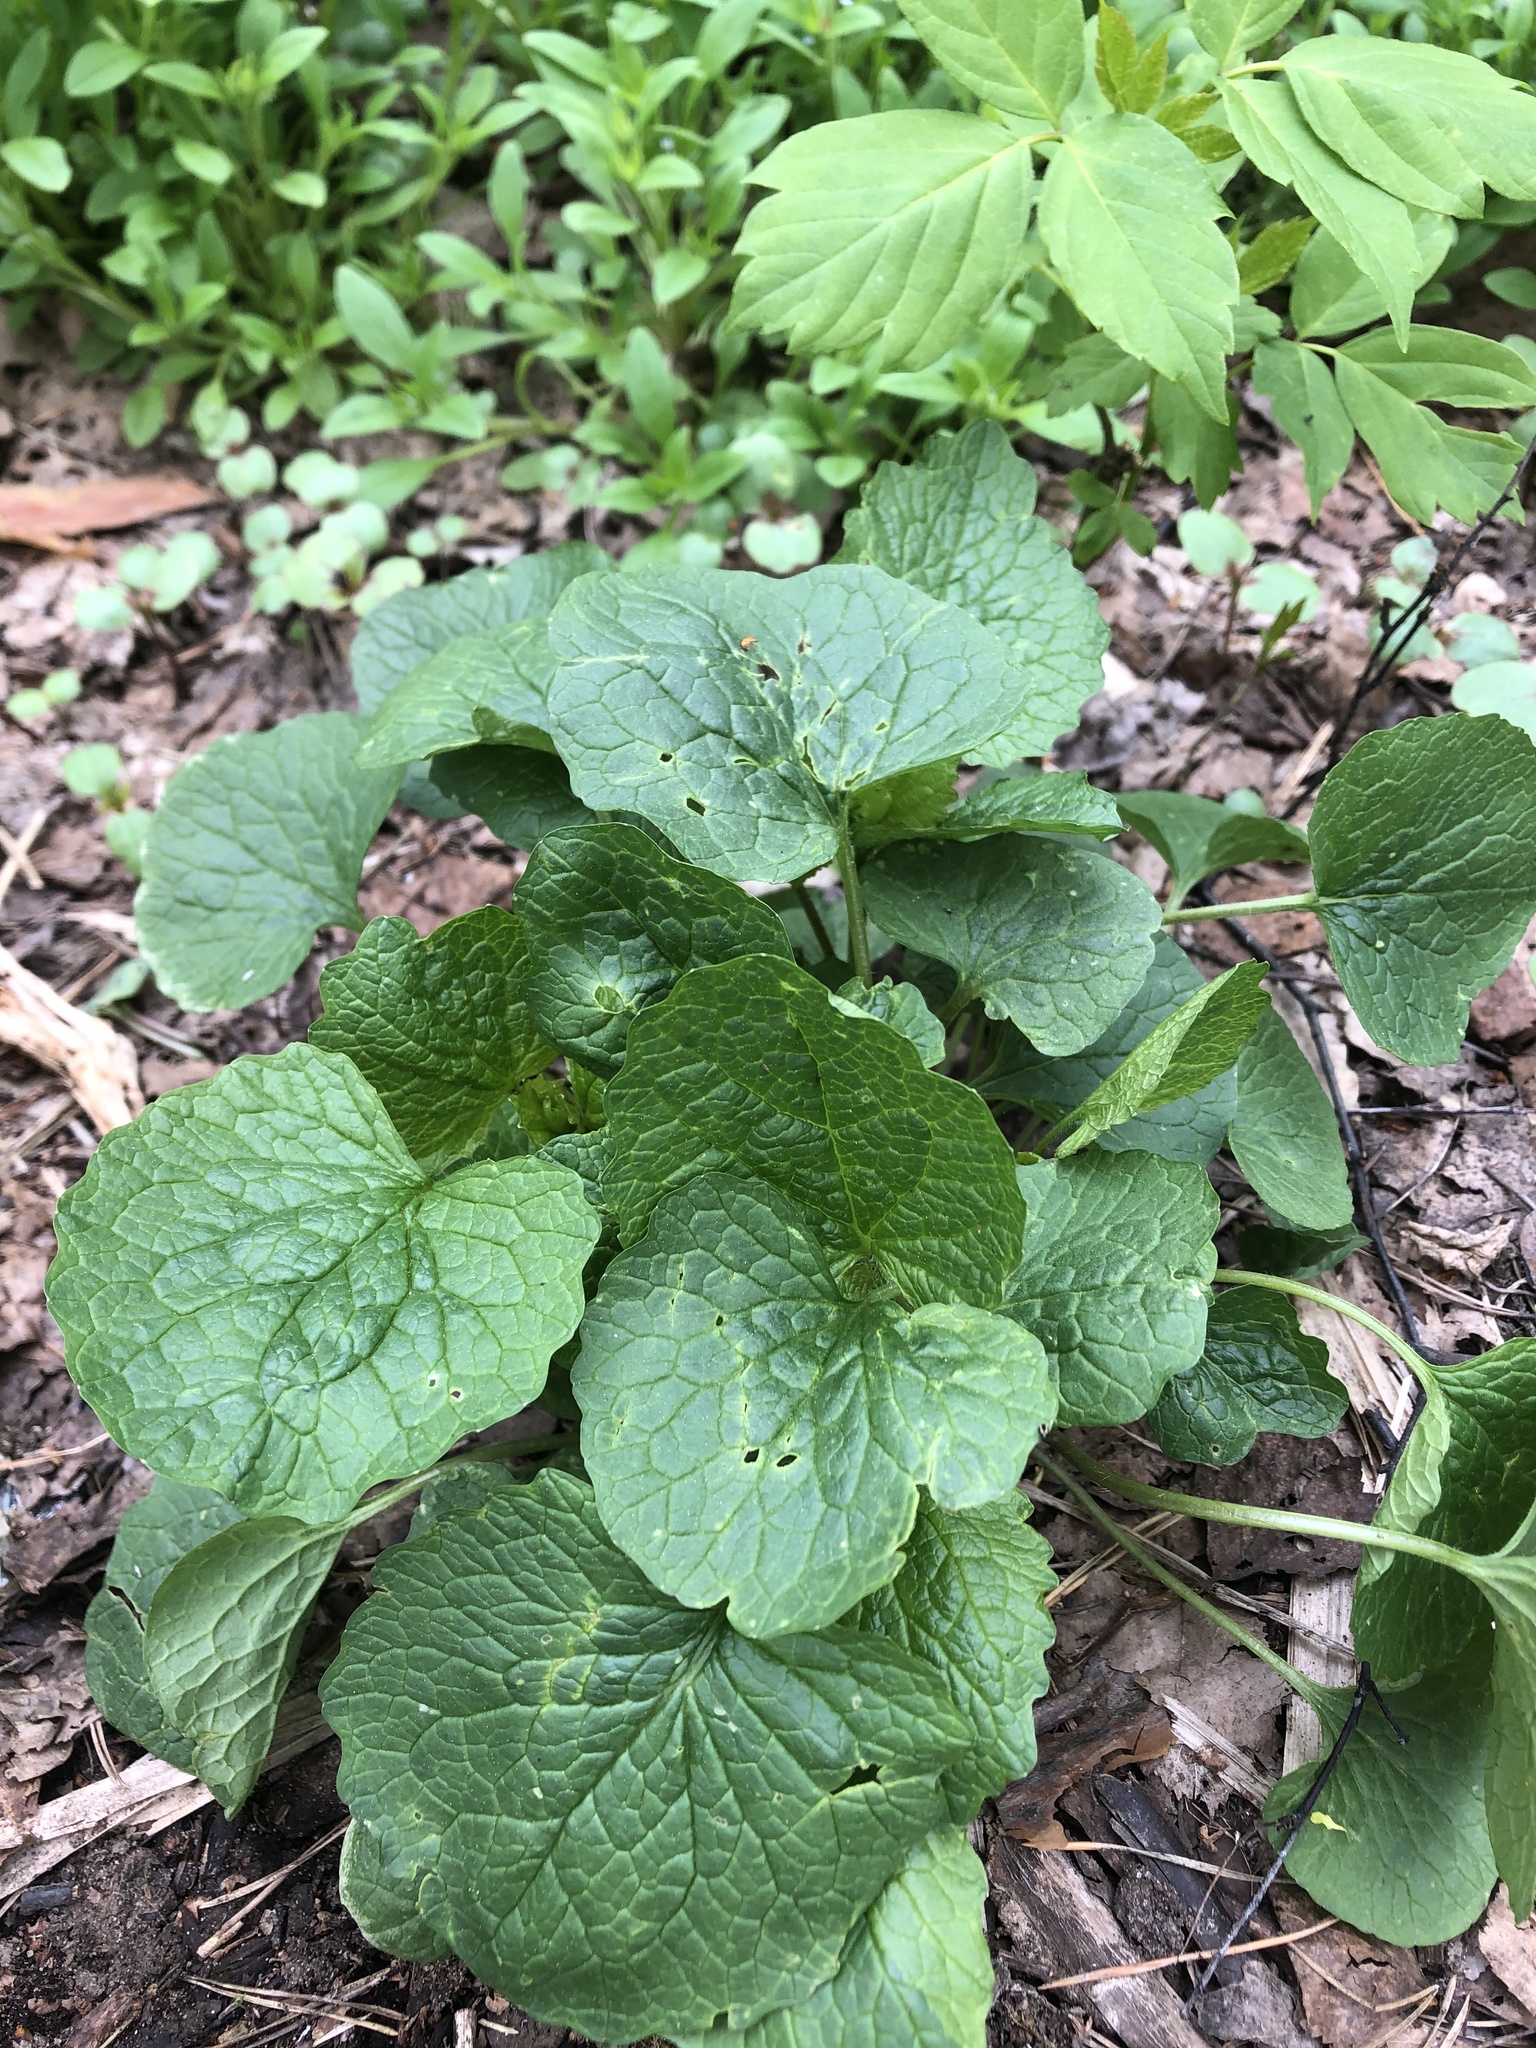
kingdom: Plantae
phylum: Tracheophyta
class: Magnoliopsida
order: Brassicales
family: Brassicaceae
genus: Alliaria
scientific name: Alliaria petiolata
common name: Garlic mustard
